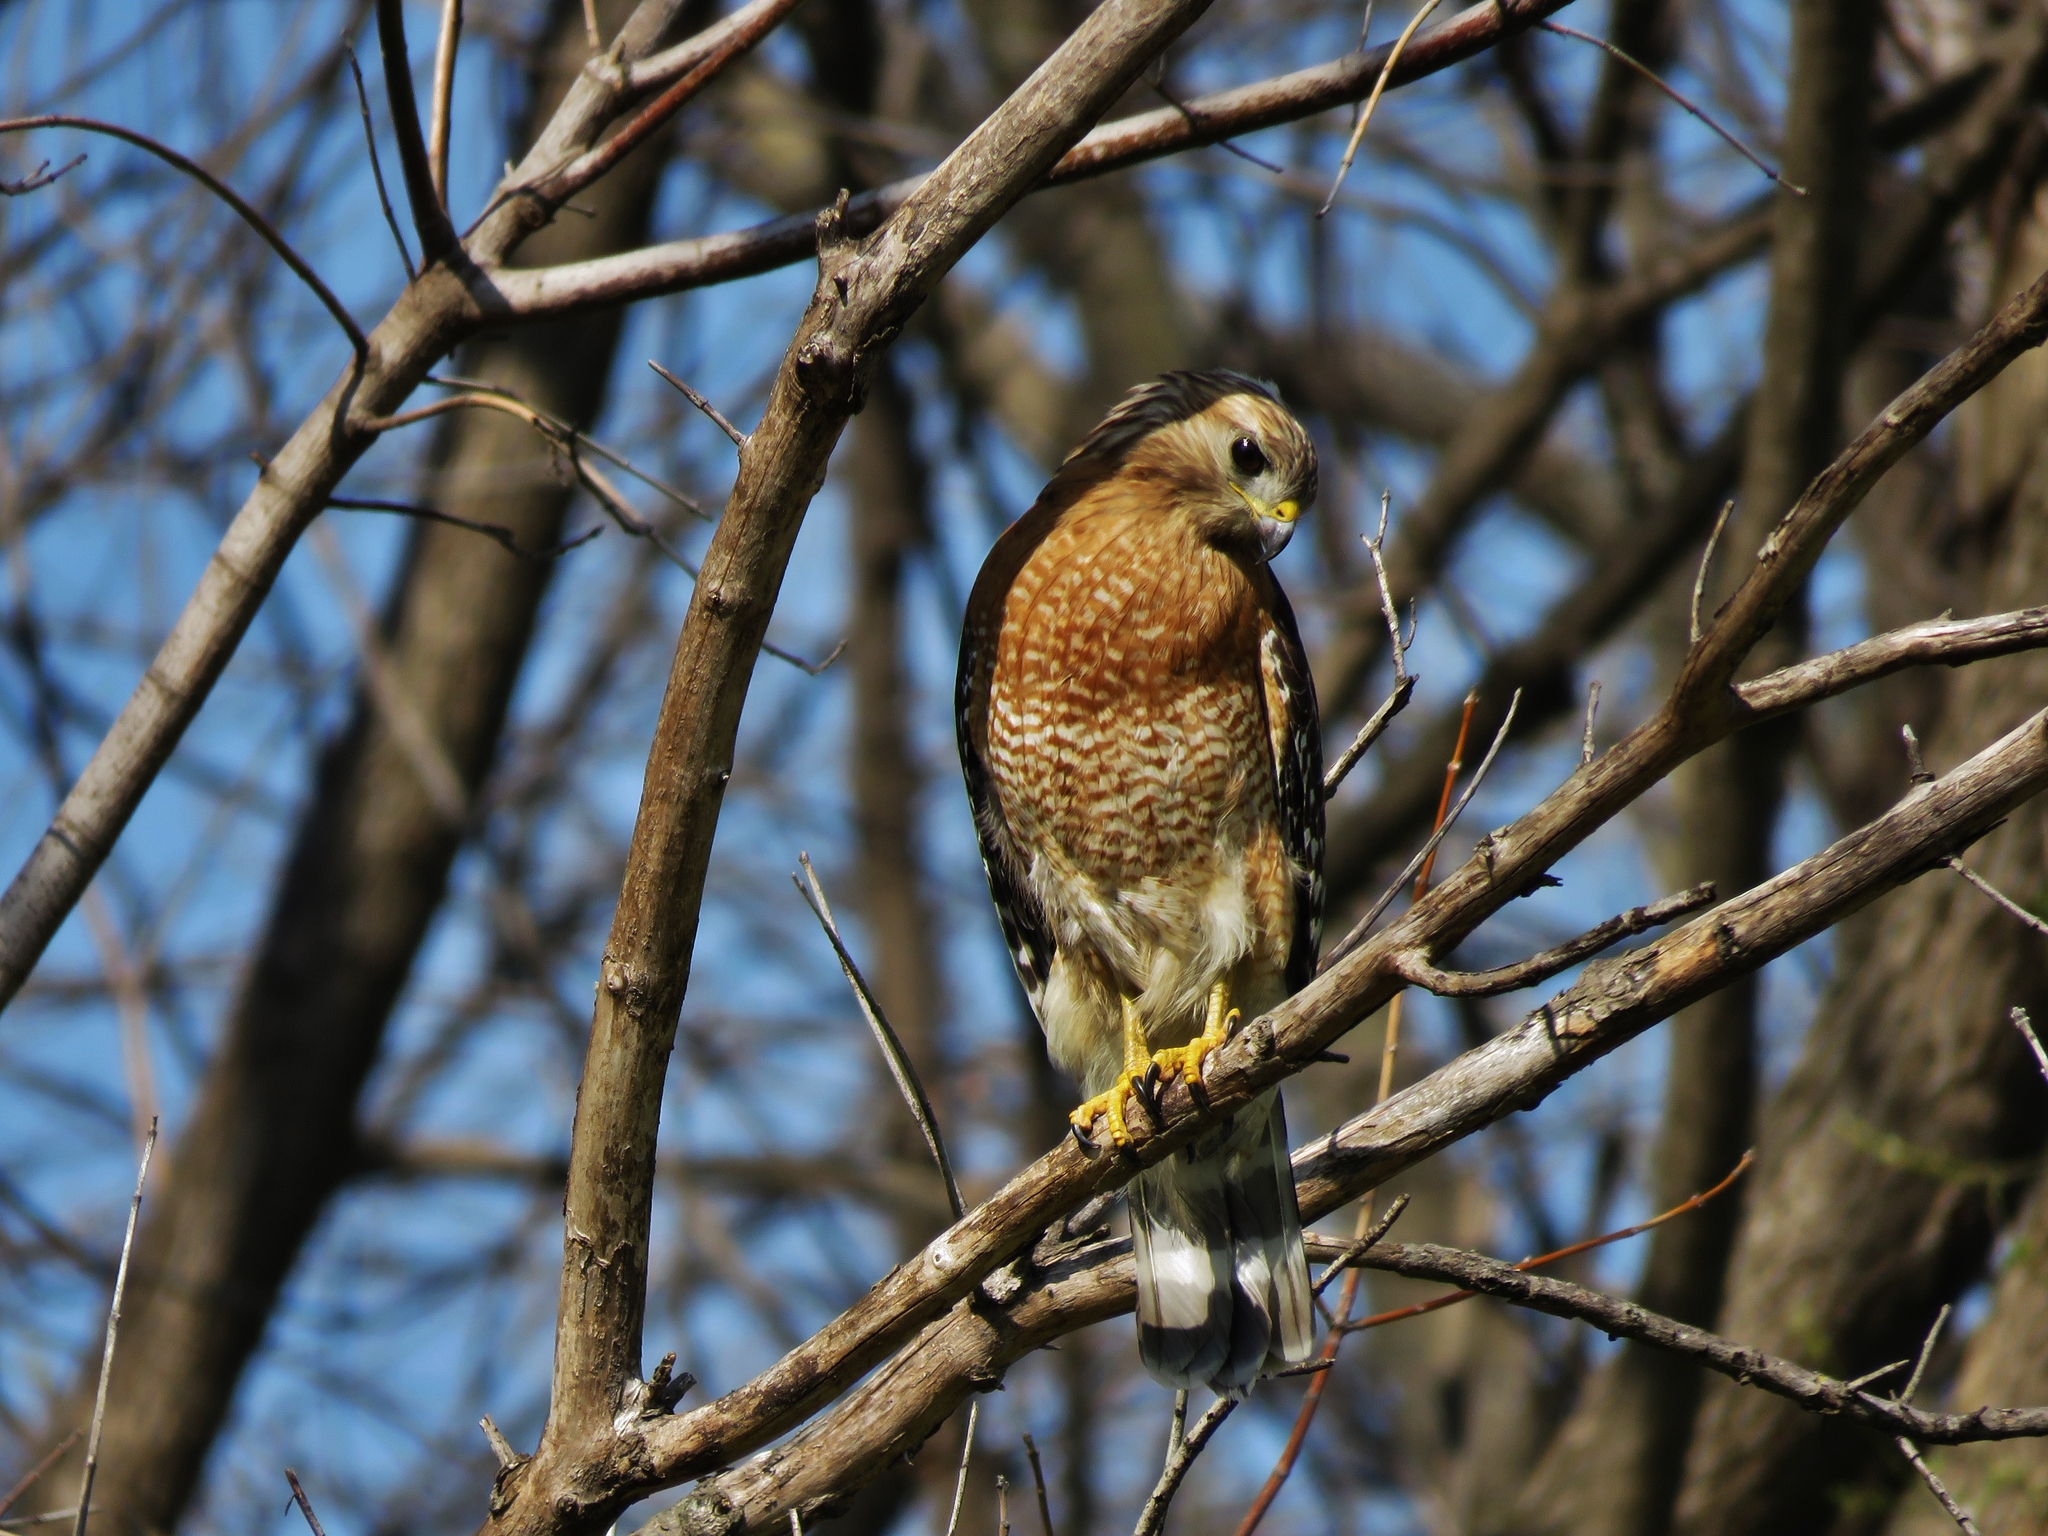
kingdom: Animalia
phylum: Chordata
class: Aves
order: Accipitriformes
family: Accipitridae
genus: Buteo
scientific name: Buteo lineatus
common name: Red-shouldered hawk
